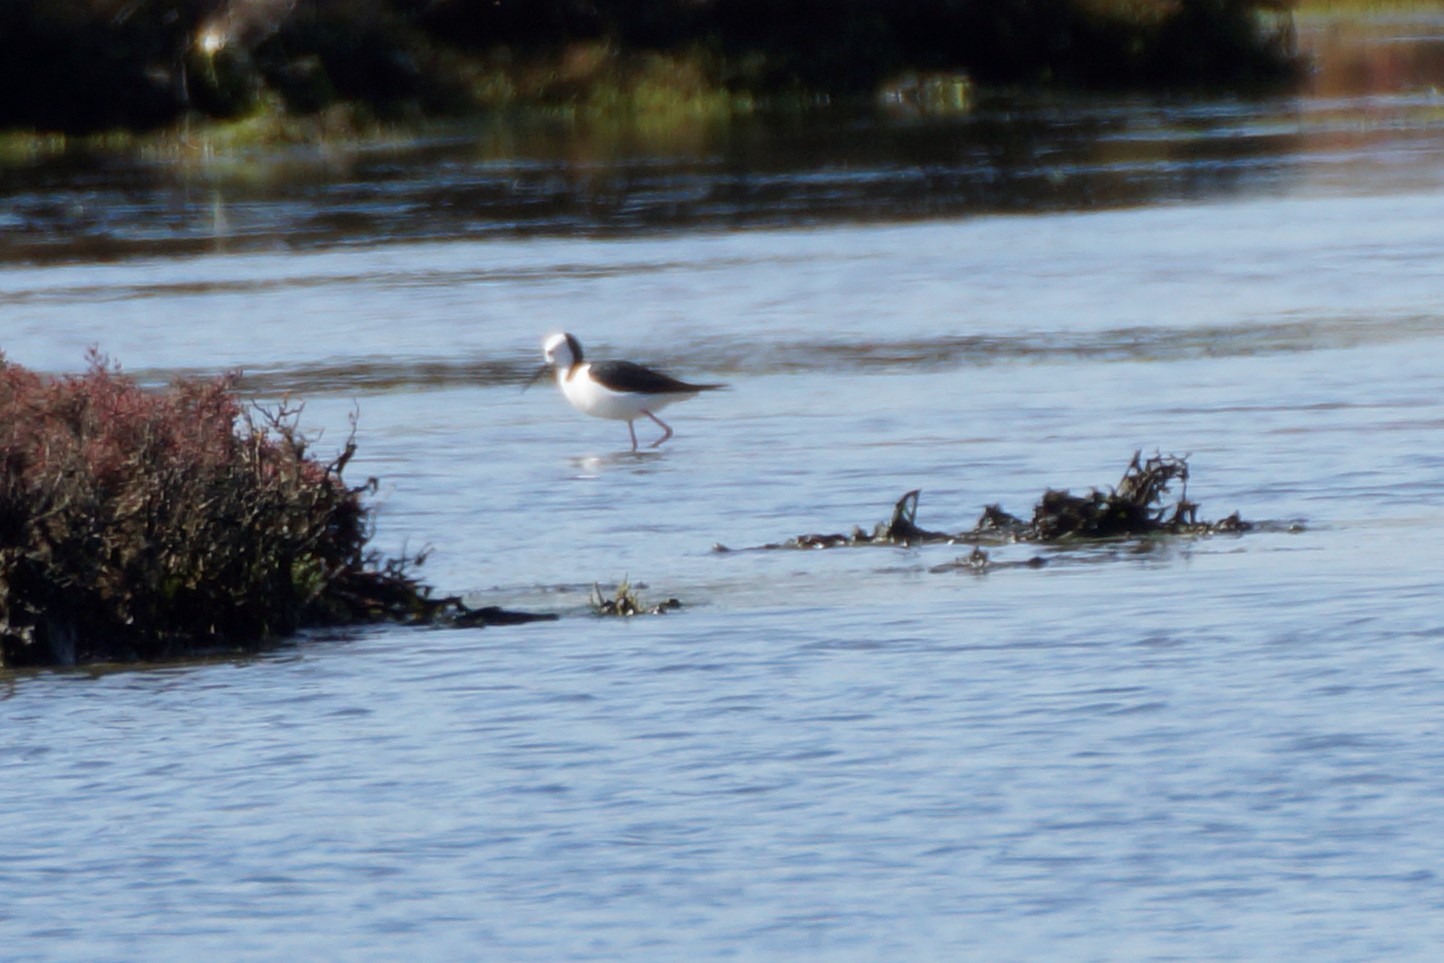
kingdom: Animalia
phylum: Chordata
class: Aves
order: Charadriiformes
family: Recurvirostridae
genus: Himantopus
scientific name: Himantopus leucocephalus
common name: White-headed stilt
